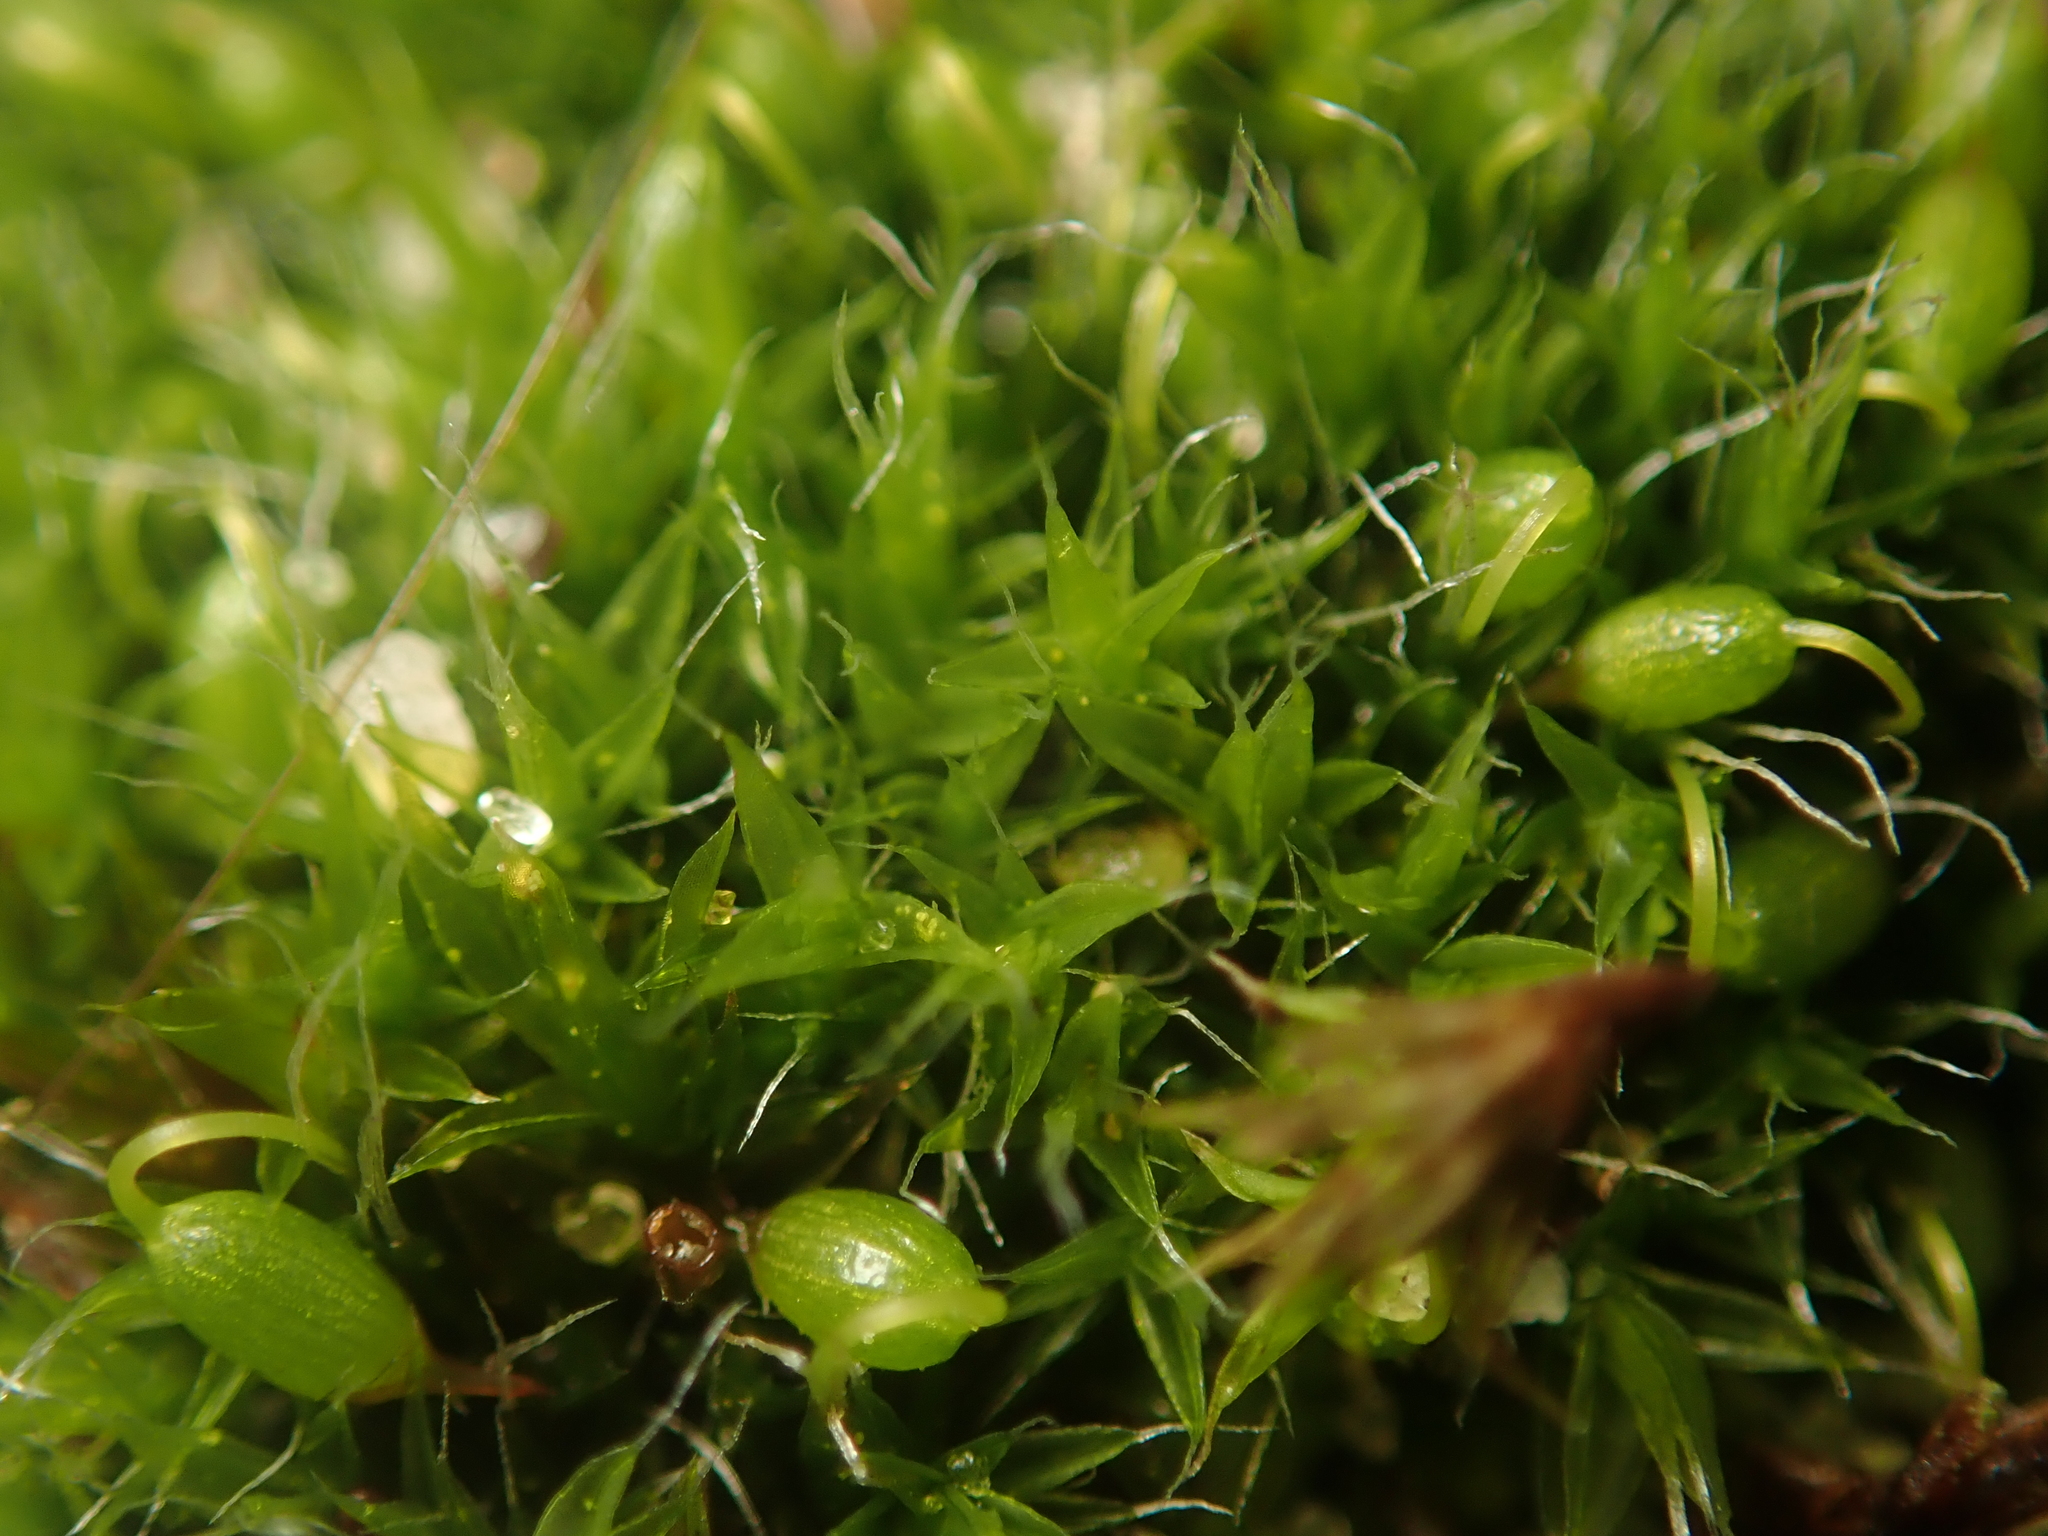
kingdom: Plantae
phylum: Bryophyta
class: Bryopsida
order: Grimmiales
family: Grimmiaceae
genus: Grimmia
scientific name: Grimmia pulvinata
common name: Grey-cushioned grimmia
